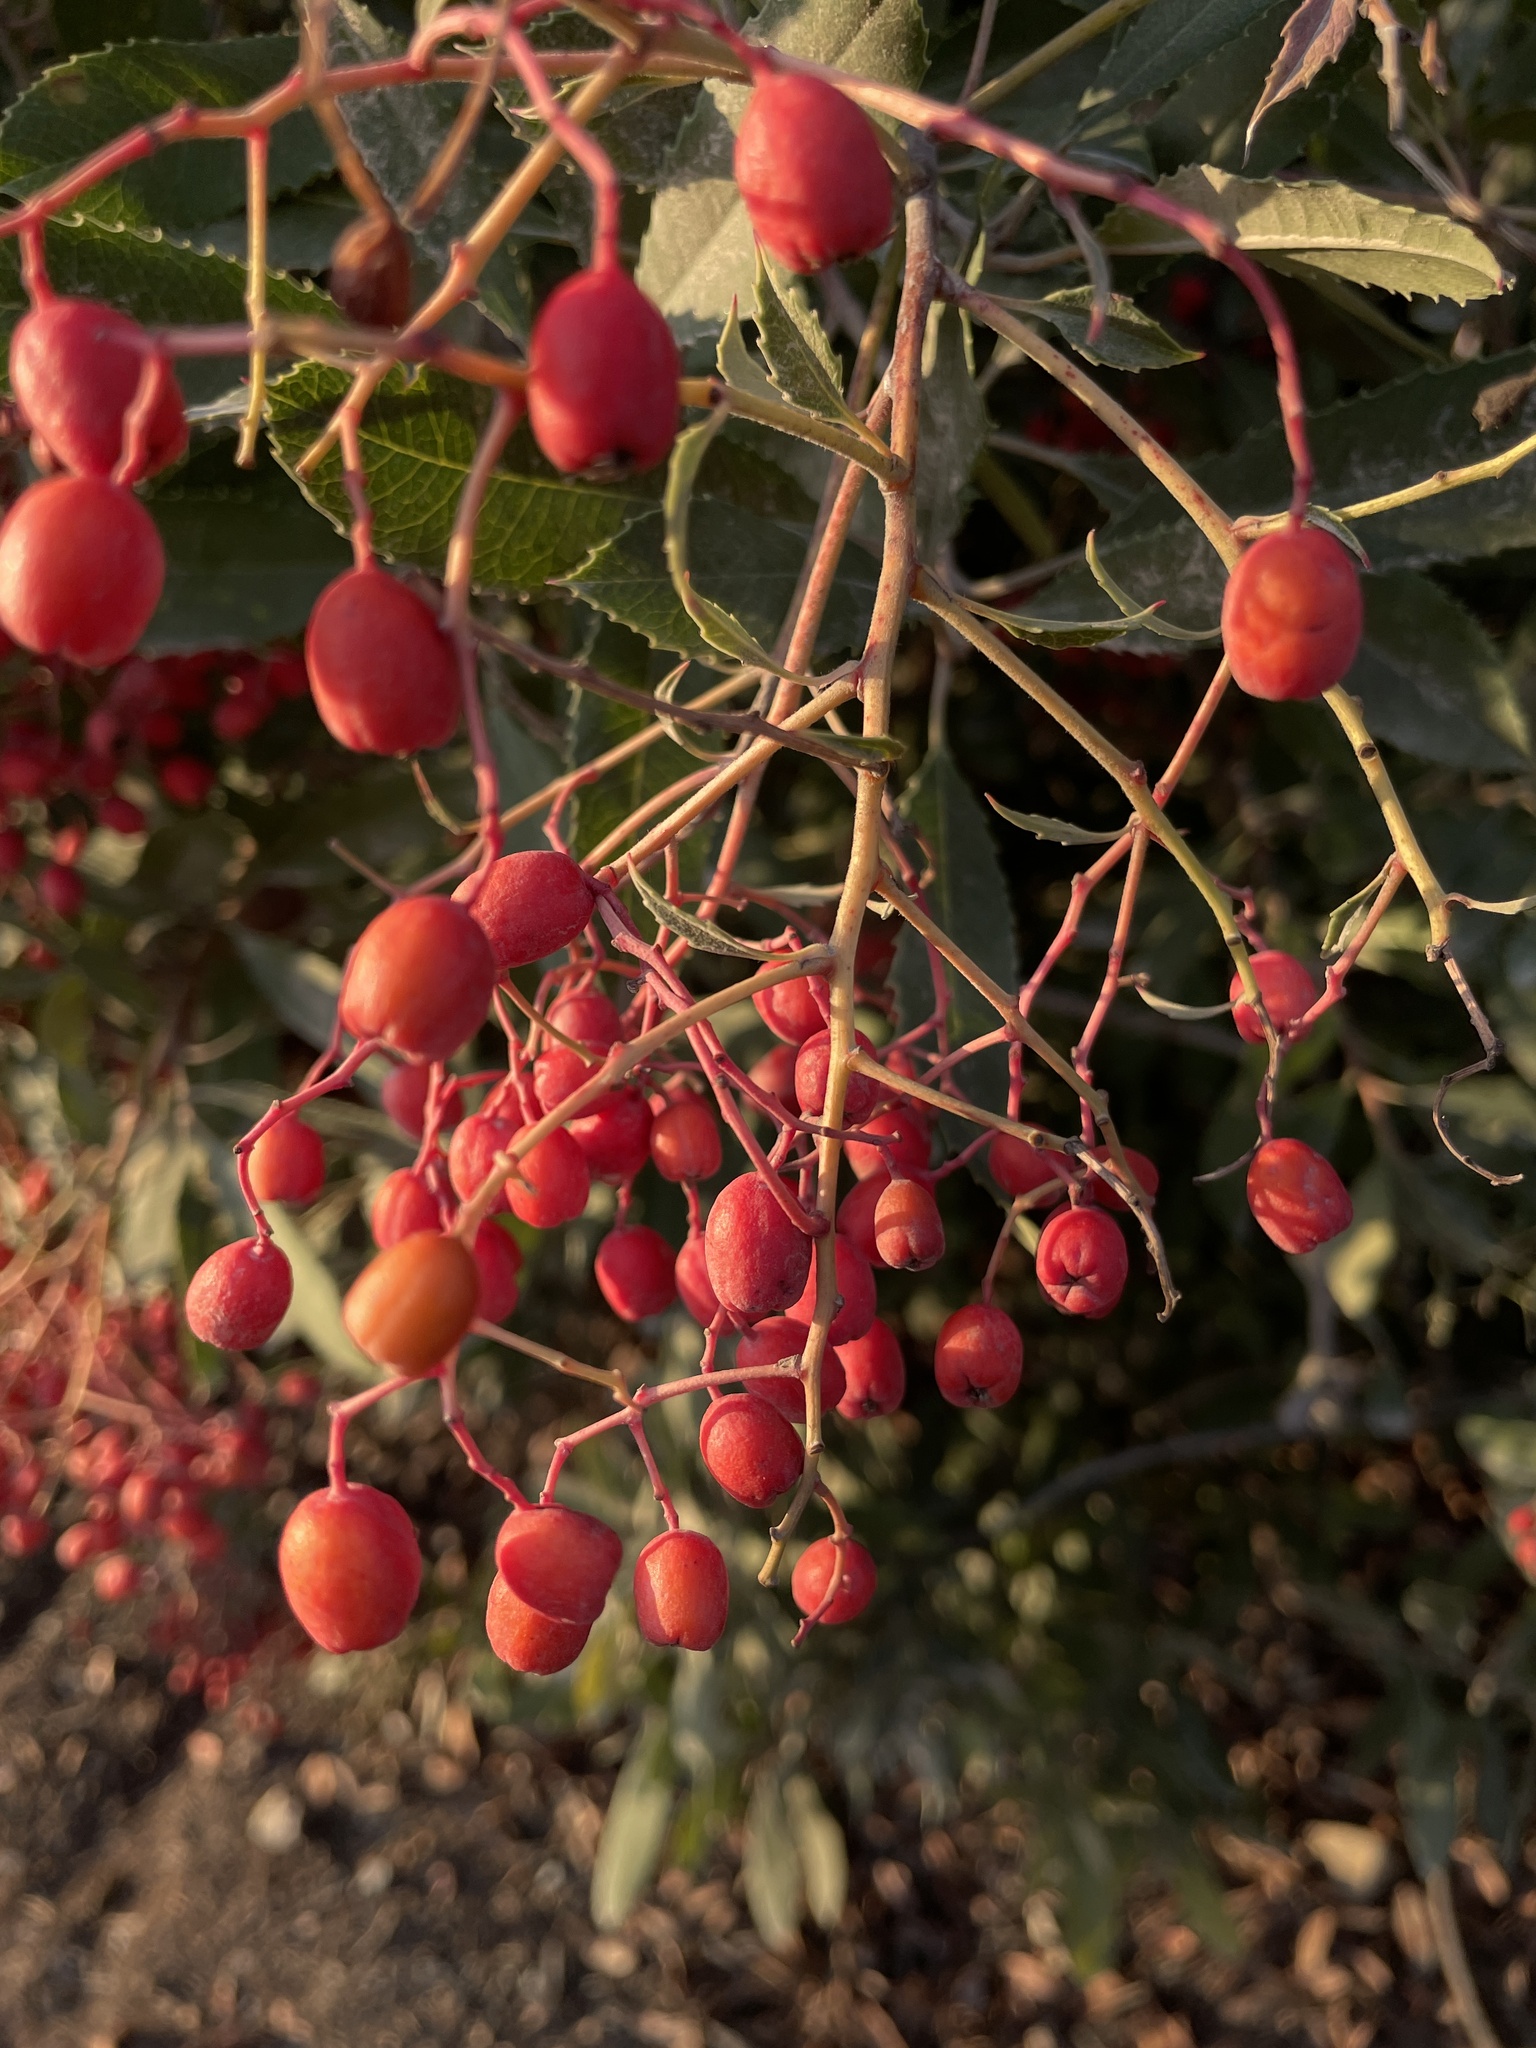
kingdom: Plantae
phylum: Tracheophyta
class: Magnoliopsida
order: Rosales
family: Rosaceae
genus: Heteromeles
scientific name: Heteromeles arbutifolia
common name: California-holly
